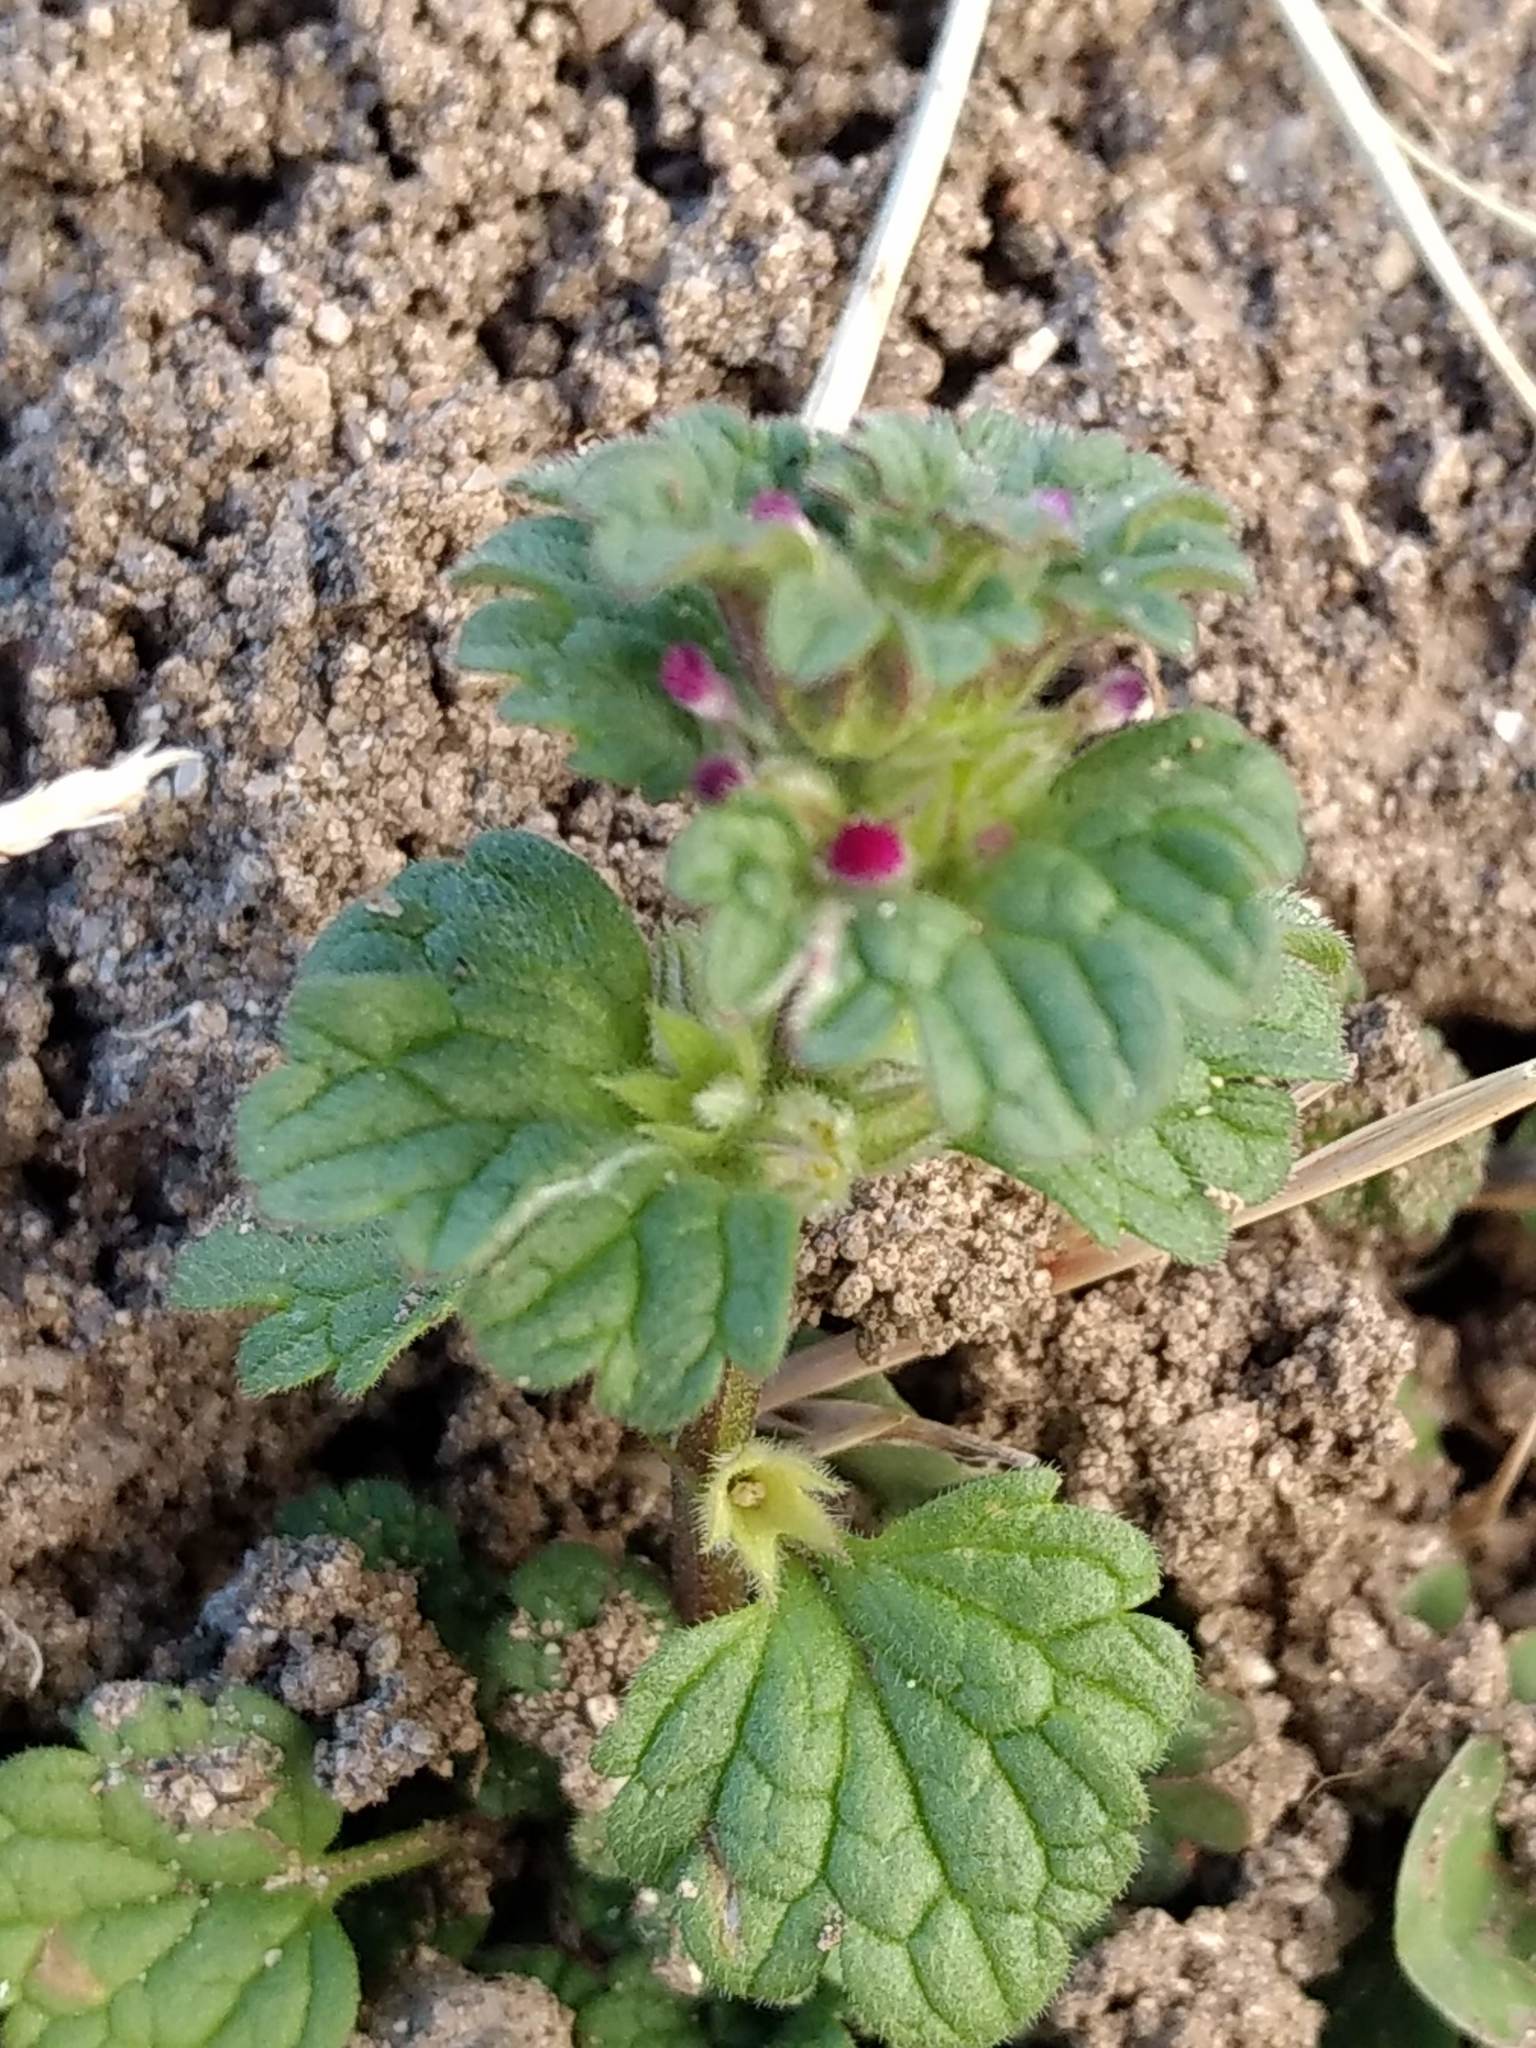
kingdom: Plantae
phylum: Tracheophyta
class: Magnoliopsida
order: Lamiales
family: Lamiaceae
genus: Lamium
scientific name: Lamium amplexicaule
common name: Henbit dead-nettle
